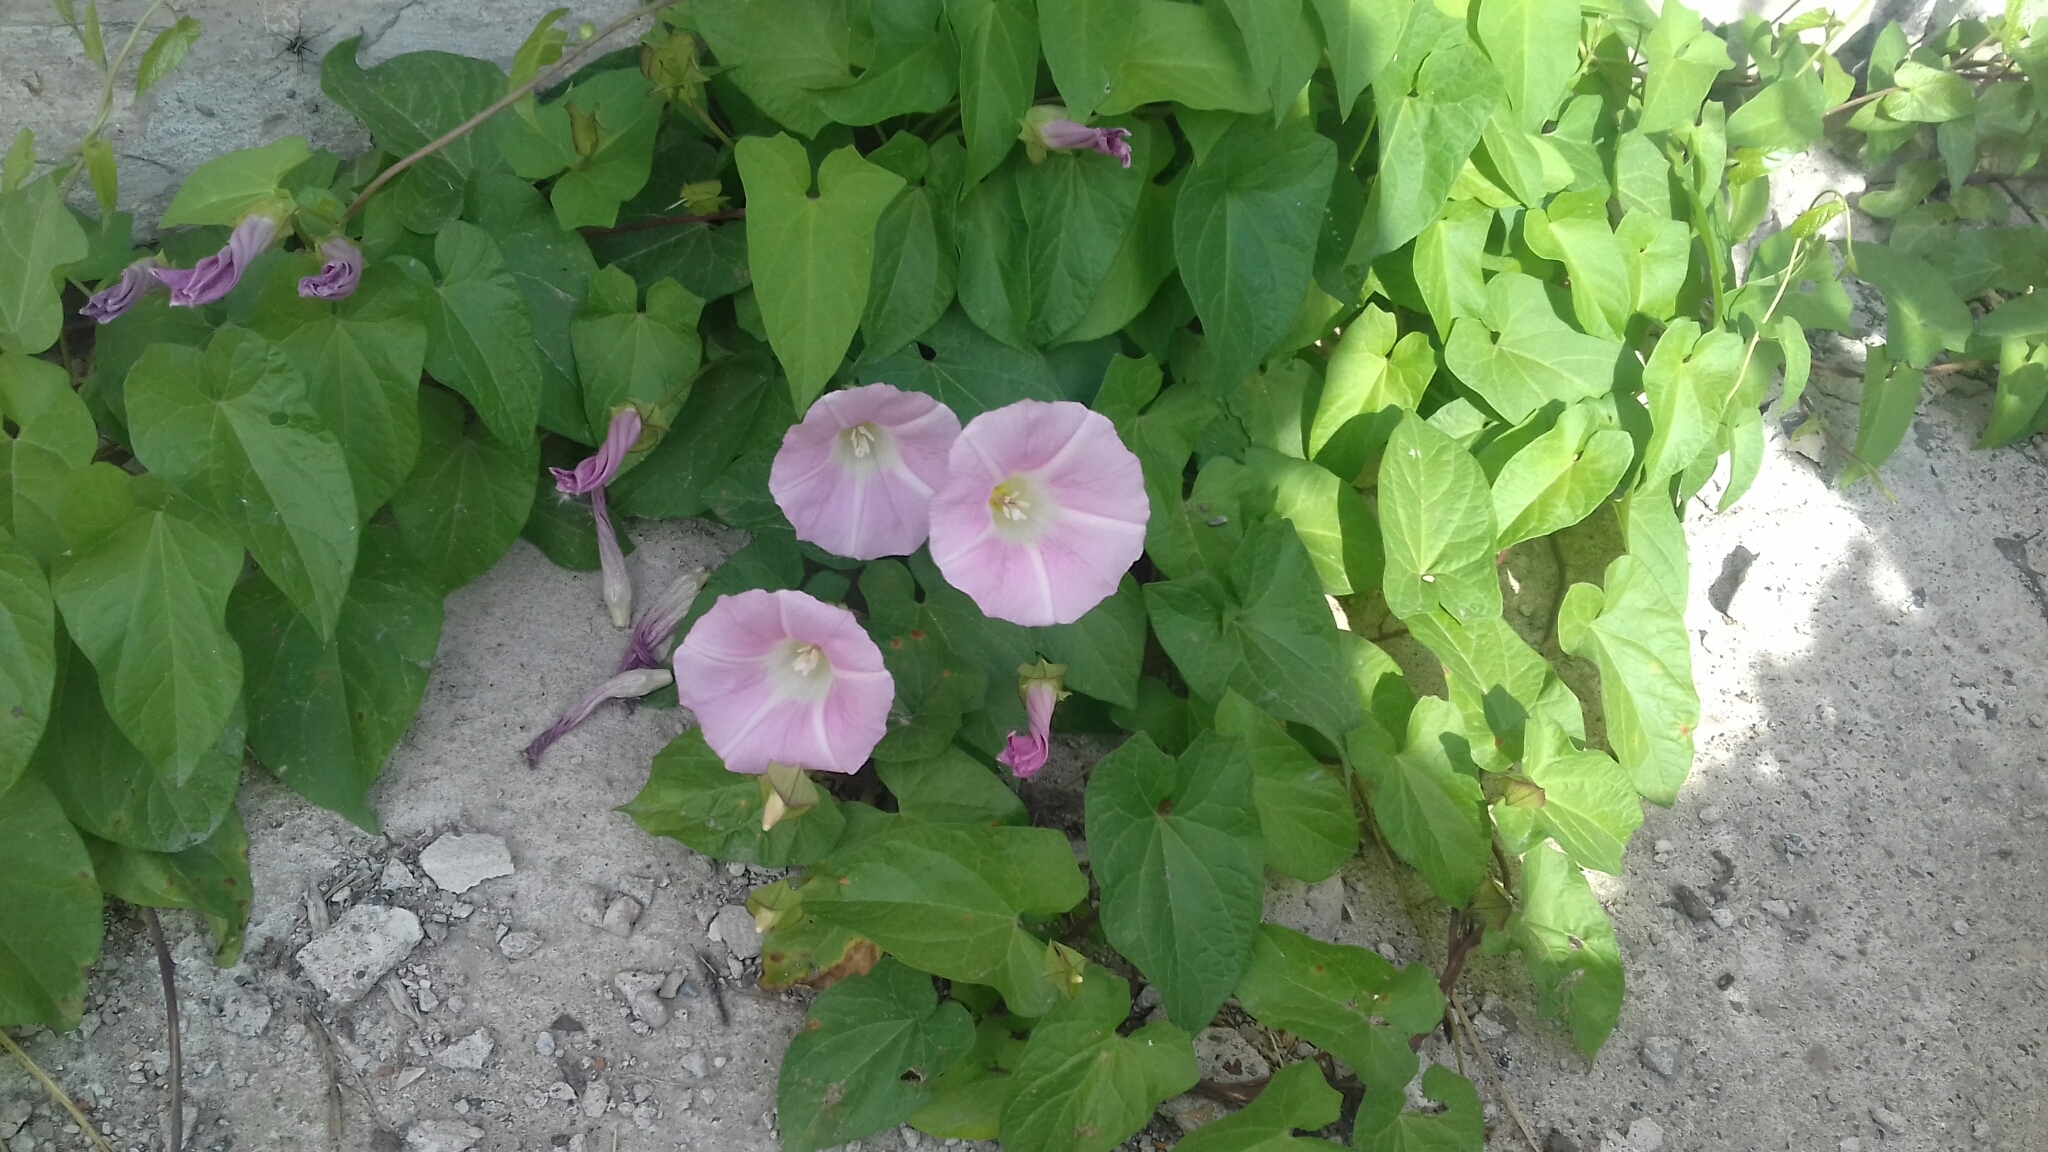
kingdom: Plantae
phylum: Tracheophyta
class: Magnoliopsida
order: Solanales
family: Convolvulaceae
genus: Calystegia
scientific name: Calystegia sepium
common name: Hedge bindweed
